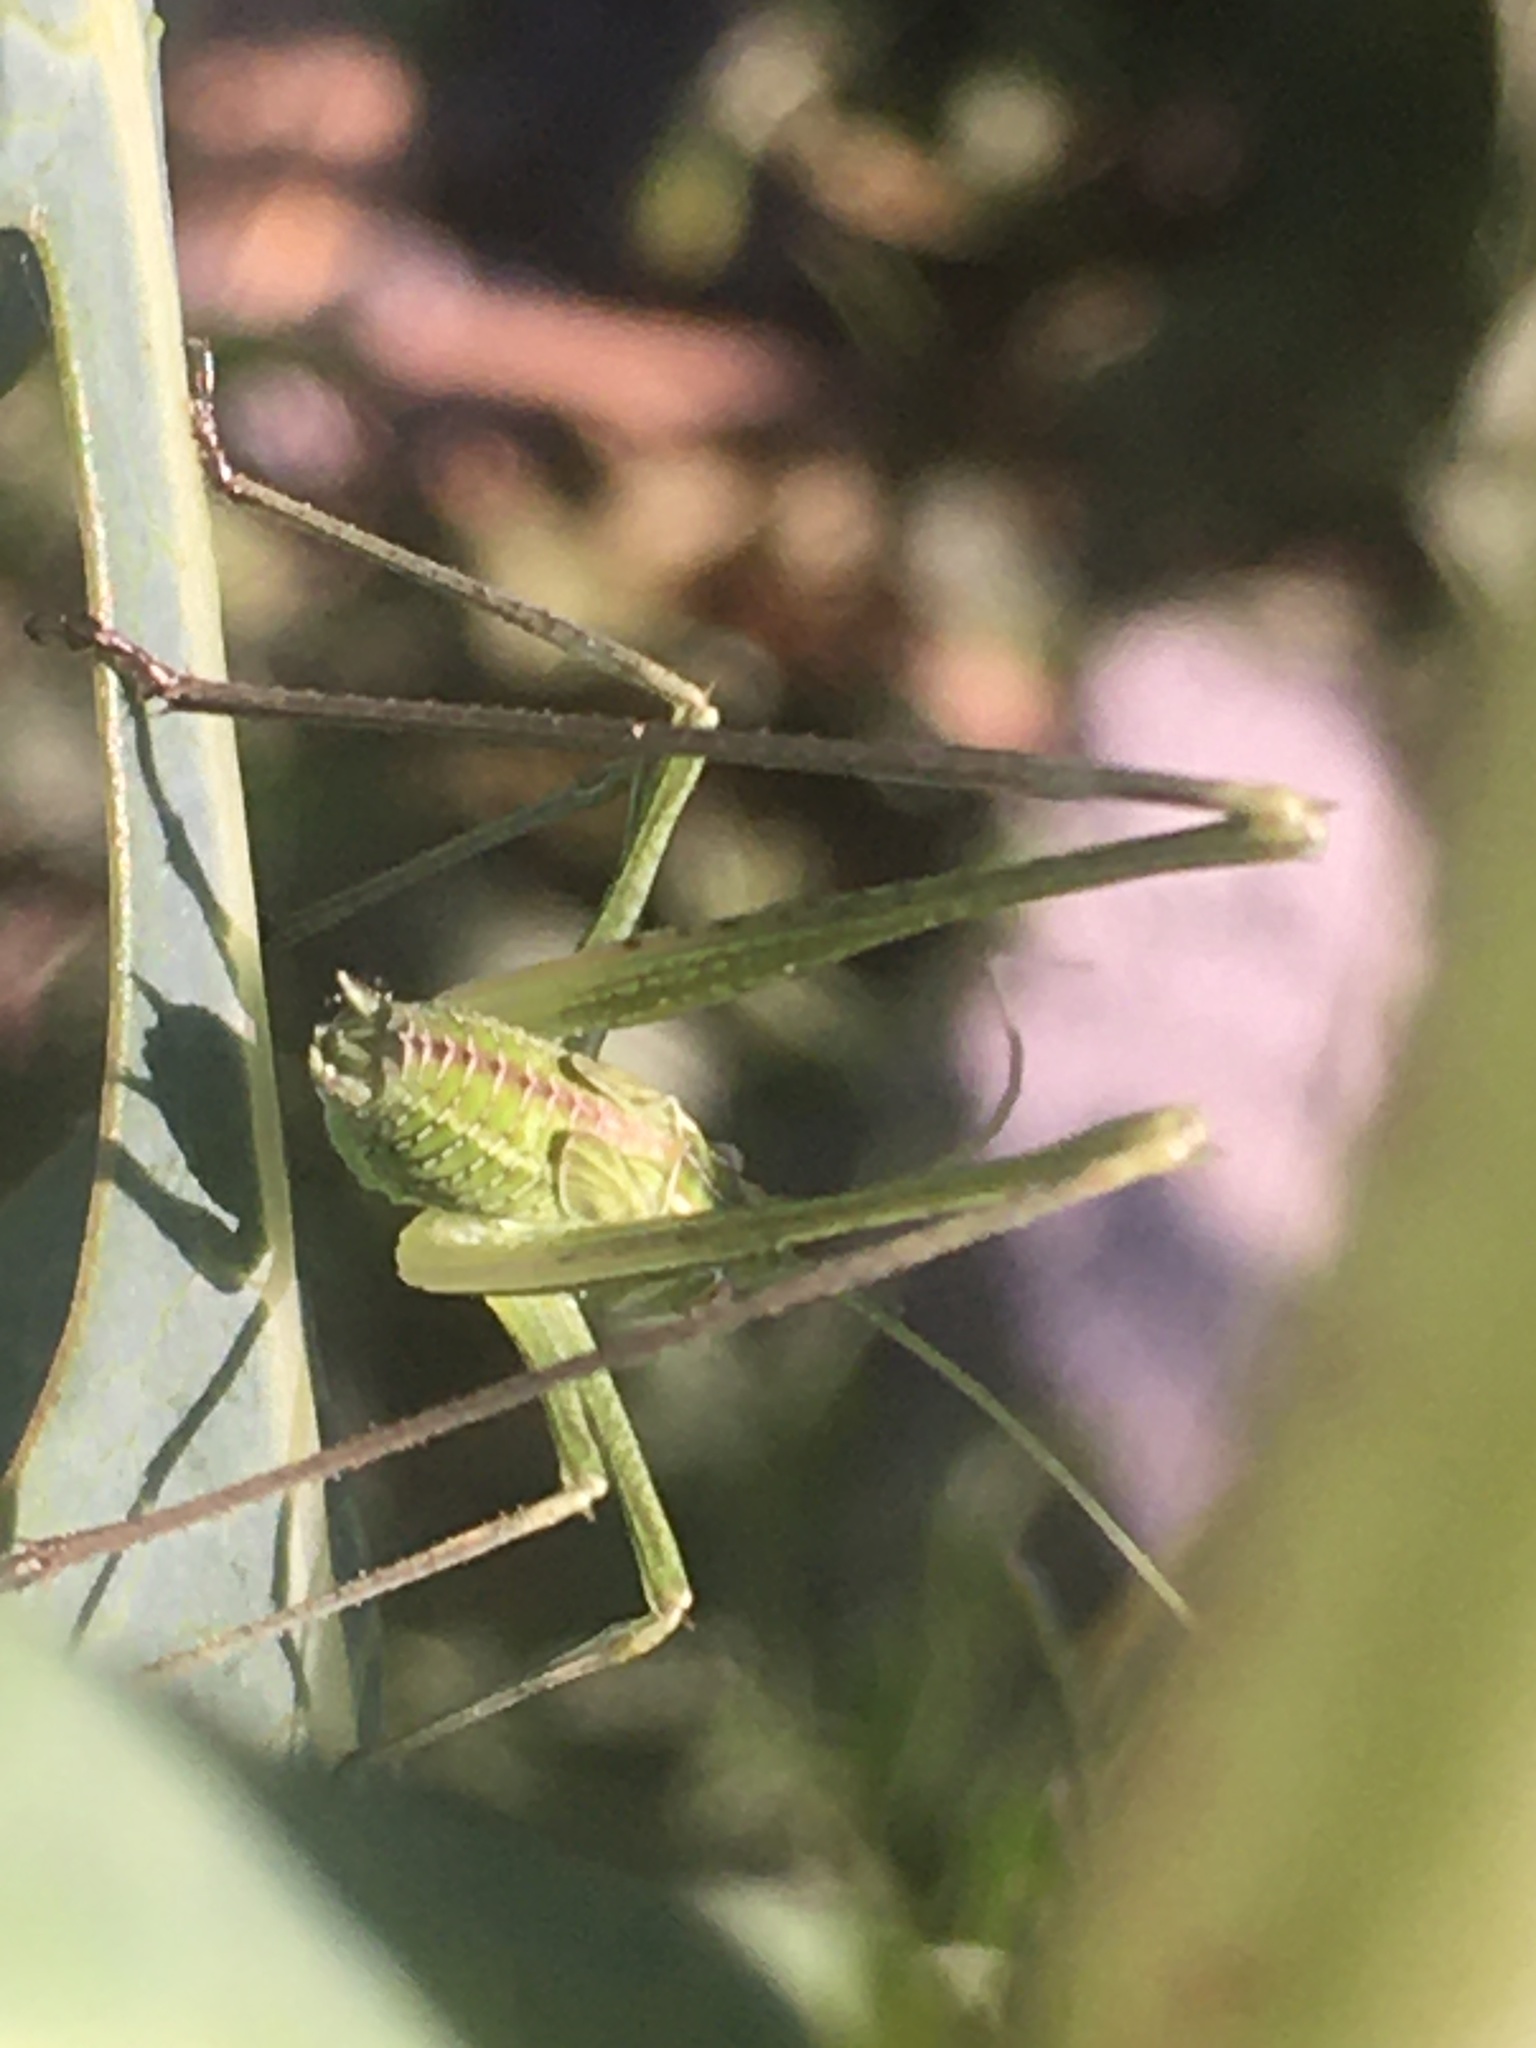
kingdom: Animalia
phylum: Arthropoda
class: Insecta
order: Orthoptera
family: Tettigoniidae
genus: Tylopsis
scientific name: Tylopsis lilifolia
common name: Lily bush-cricket
